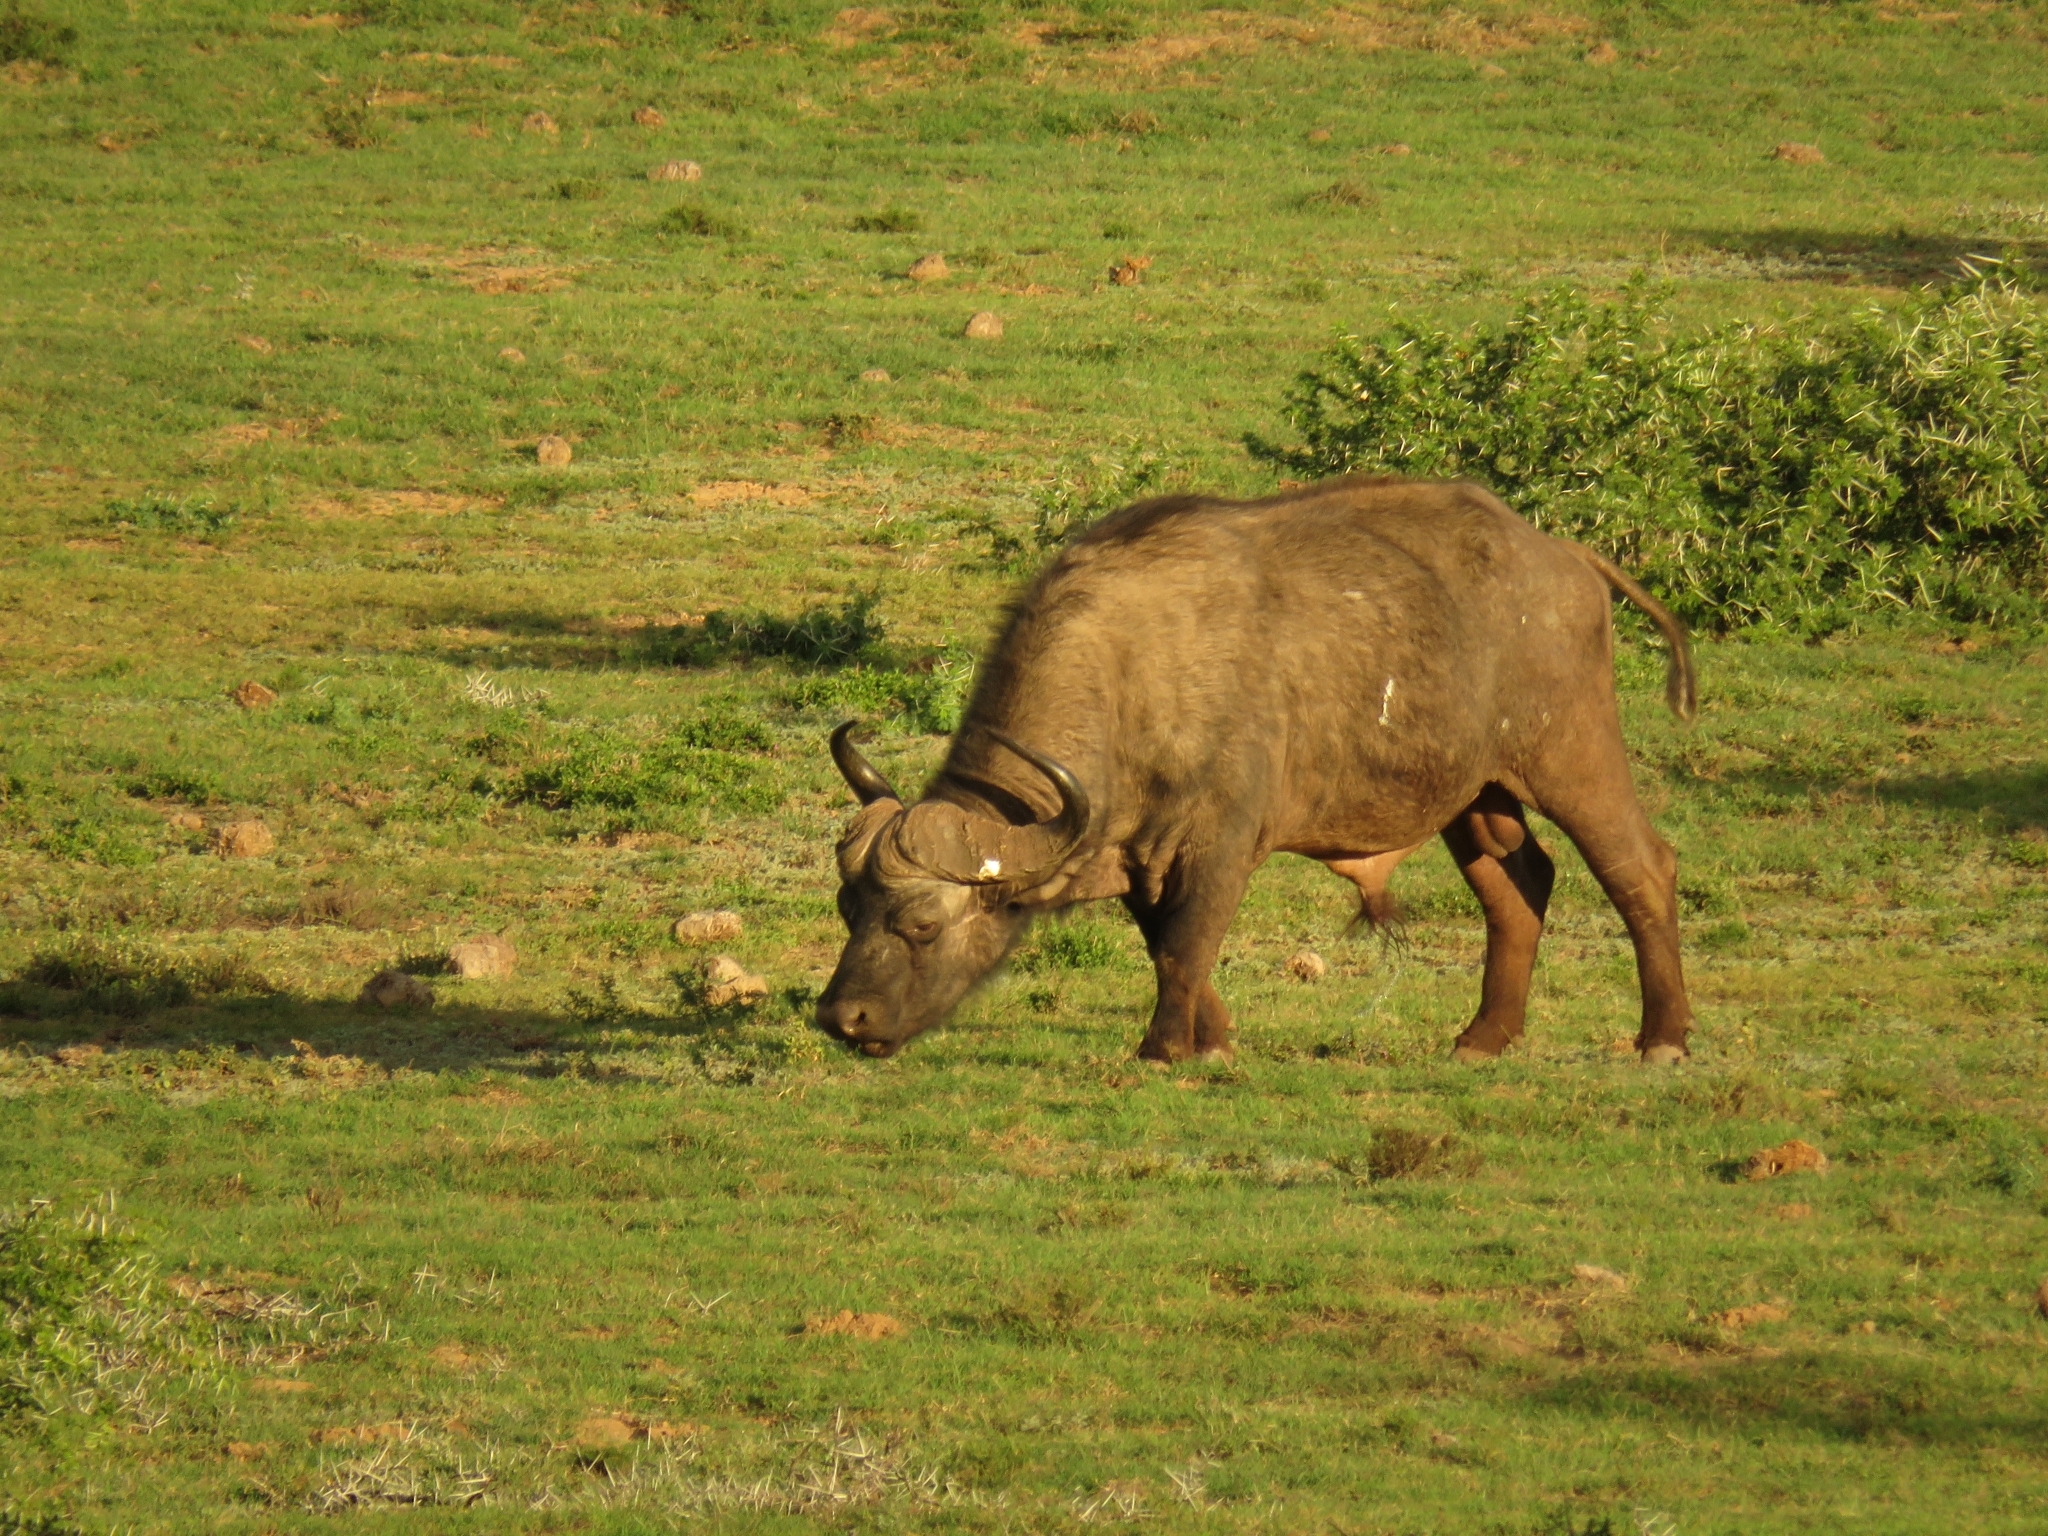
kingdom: Animalia
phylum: Chordata
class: Mammalia
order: Artiodactyla
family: Bovidae
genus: Syncerus
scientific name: Syncerus caffer
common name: African buffalo
